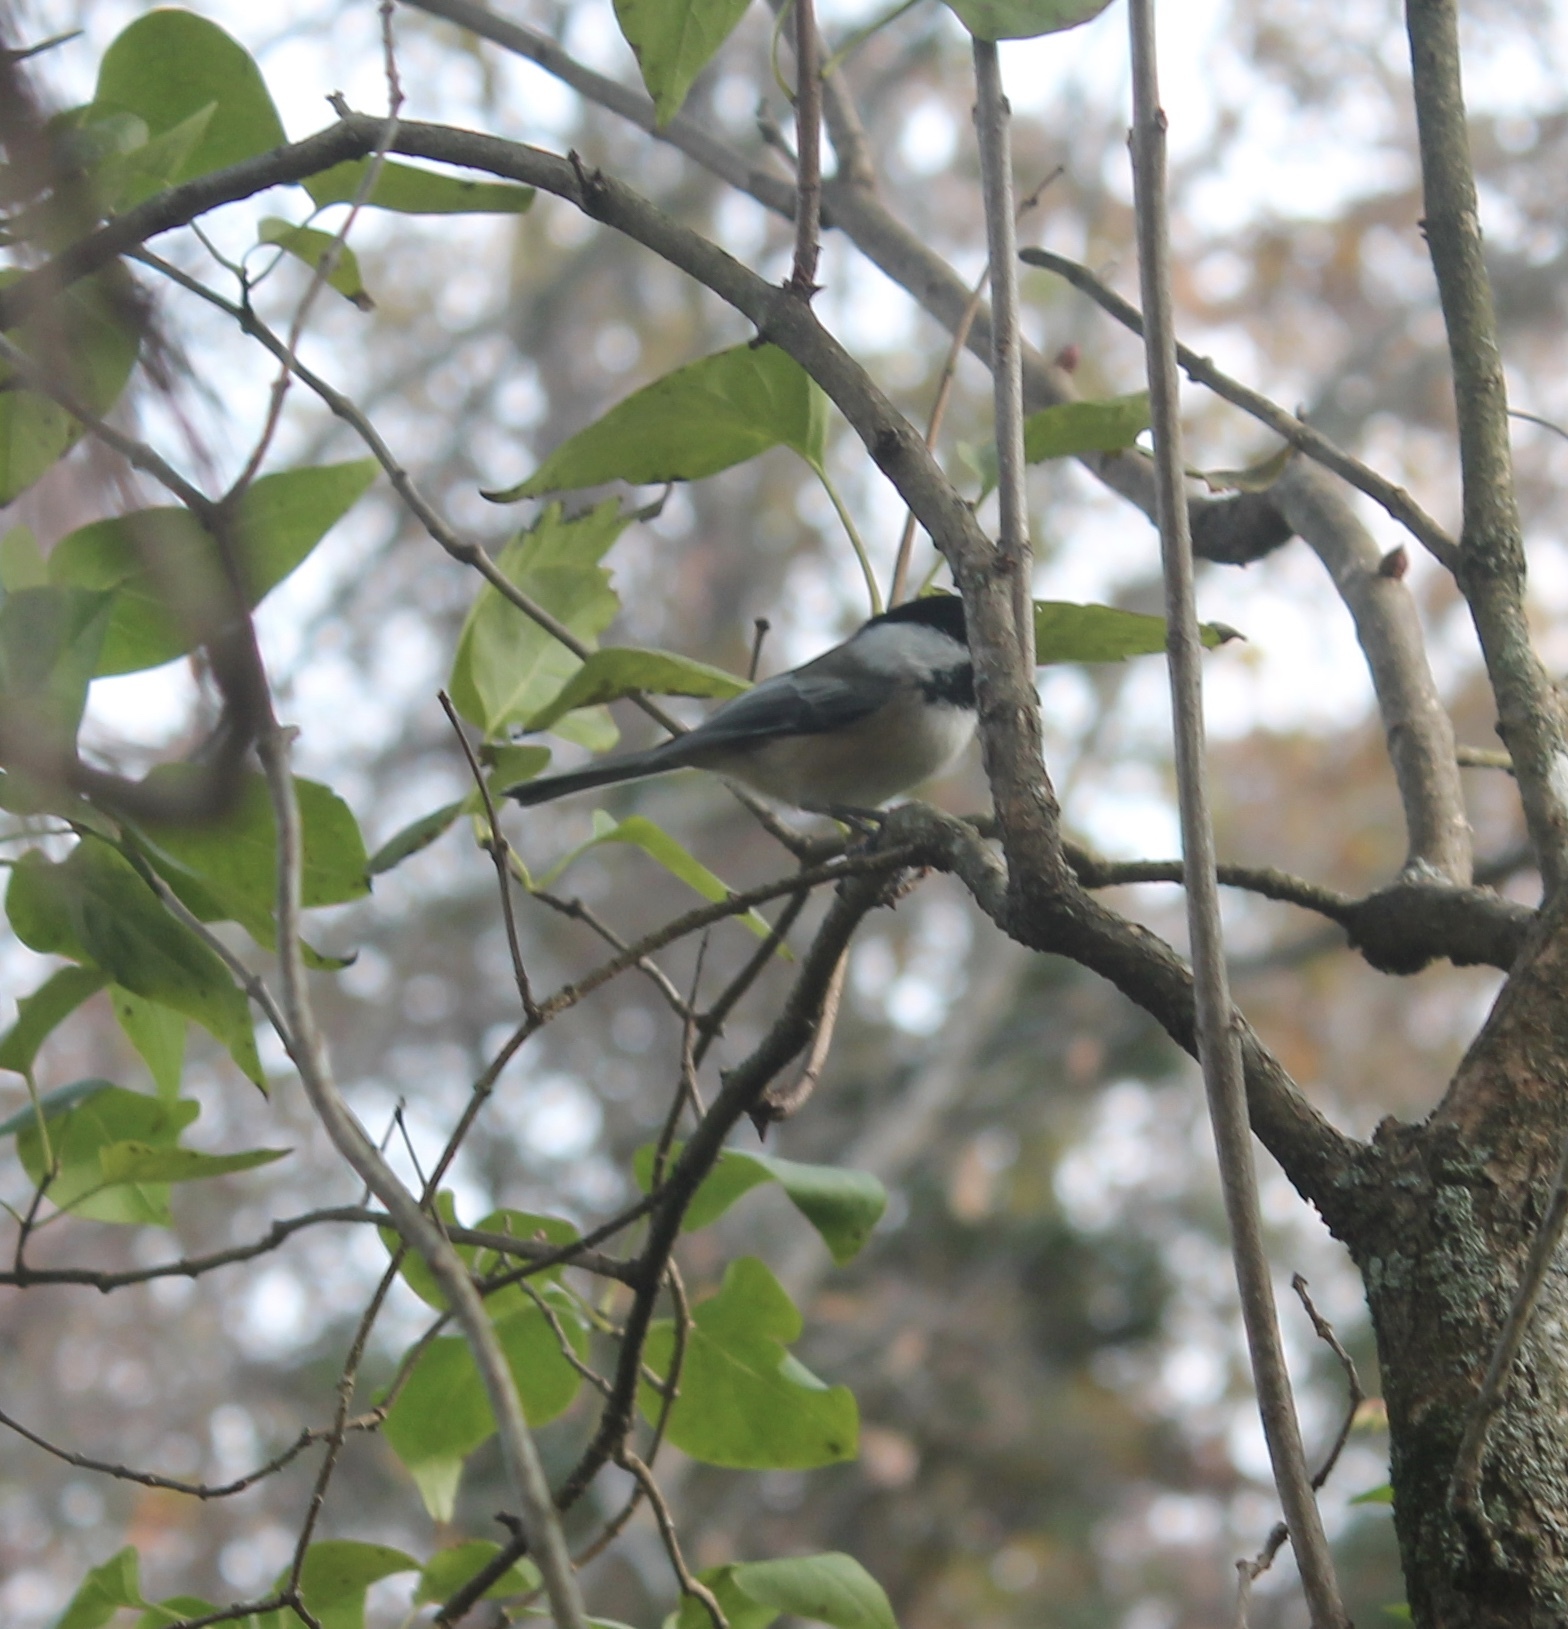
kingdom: Animalia
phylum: Chordata
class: Aves
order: Passeriformes
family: Paridae
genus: Poecile
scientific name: Poecile atricapillus
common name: Black-capped chickadee
